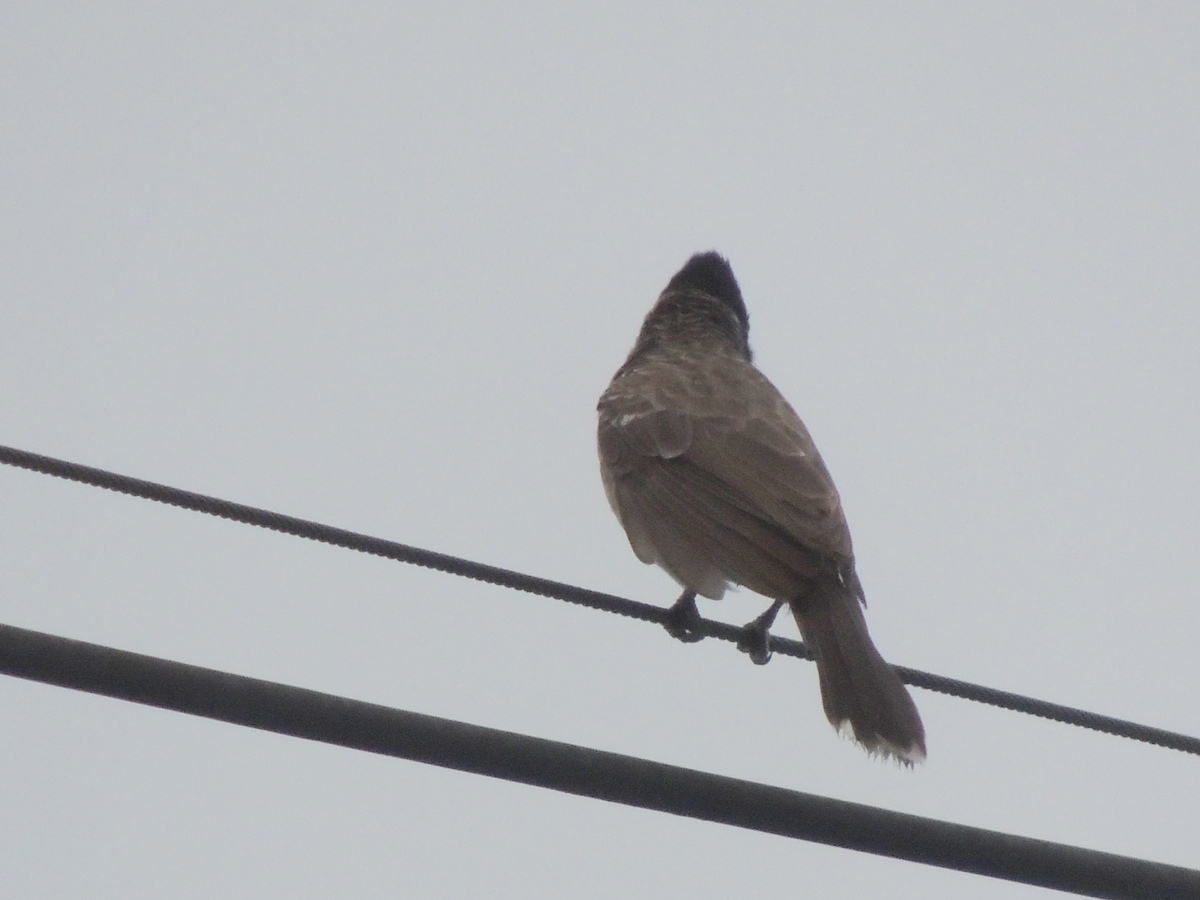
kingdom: Animalia
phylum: Chordata
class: Aves
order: Passeriformes
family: Pycnonotidae
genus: Pycnonotus
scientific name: Pycnonotus cafer
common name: Red-vented bulbul
